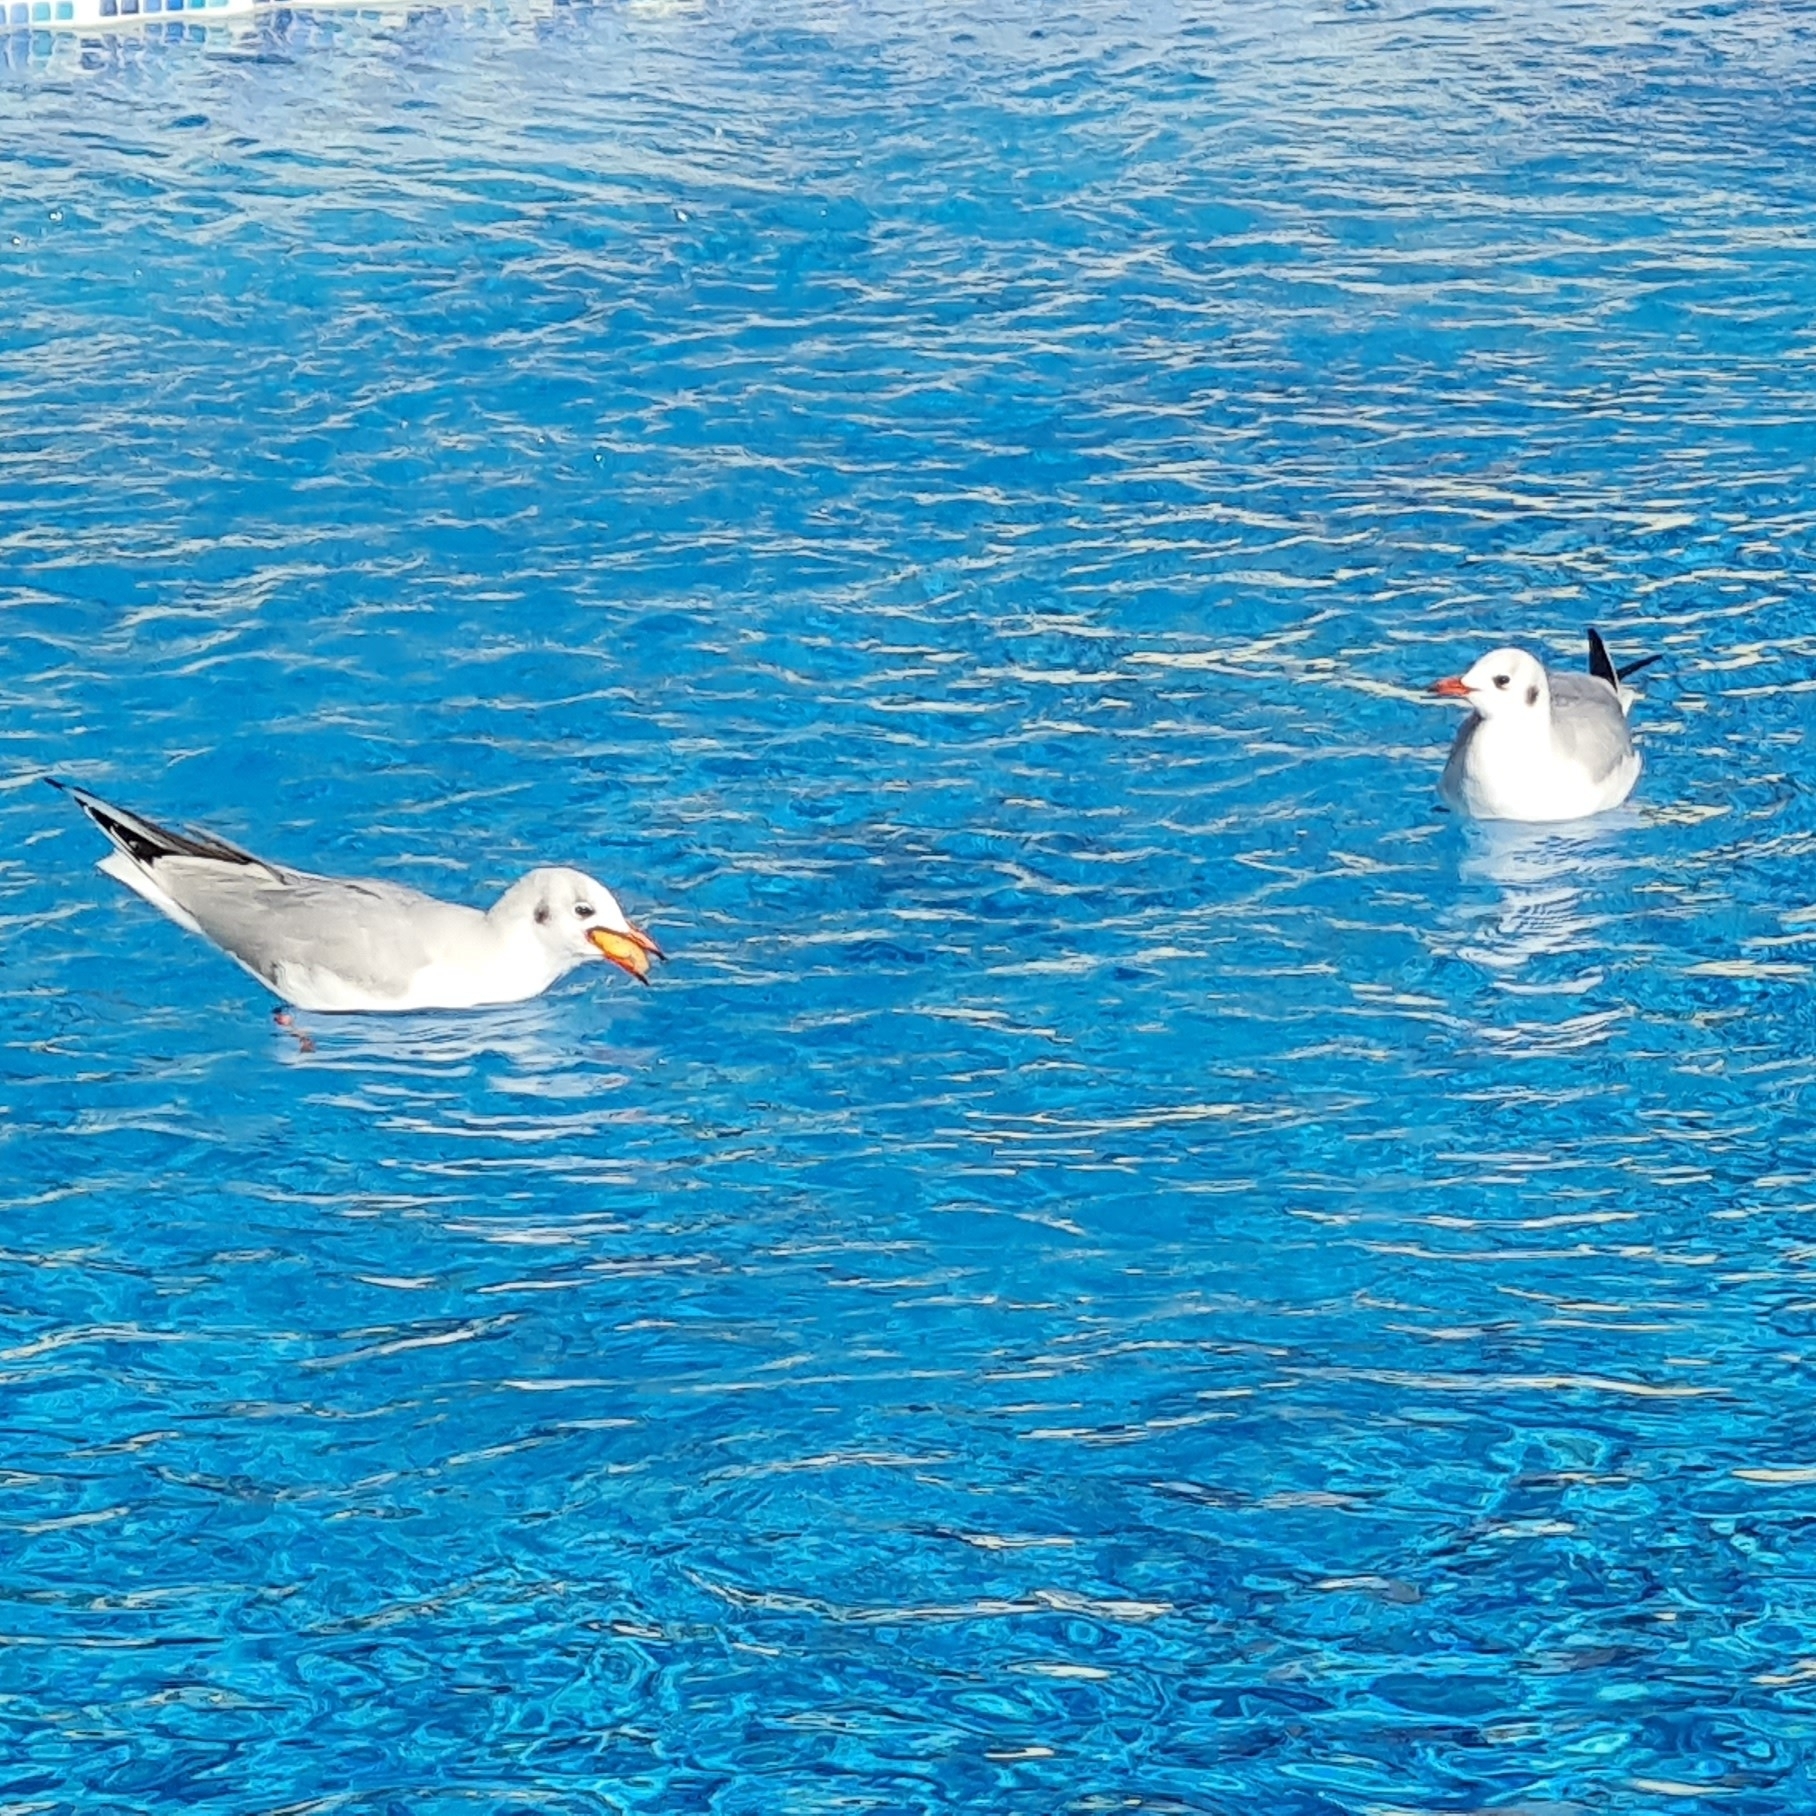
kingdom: Animalia
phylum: Chordata
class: Aves
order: Charadriiformes
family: Laridae
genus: Chroicocephalus
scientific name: Chroicocephalus ridibundus
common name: Black-headed gull
